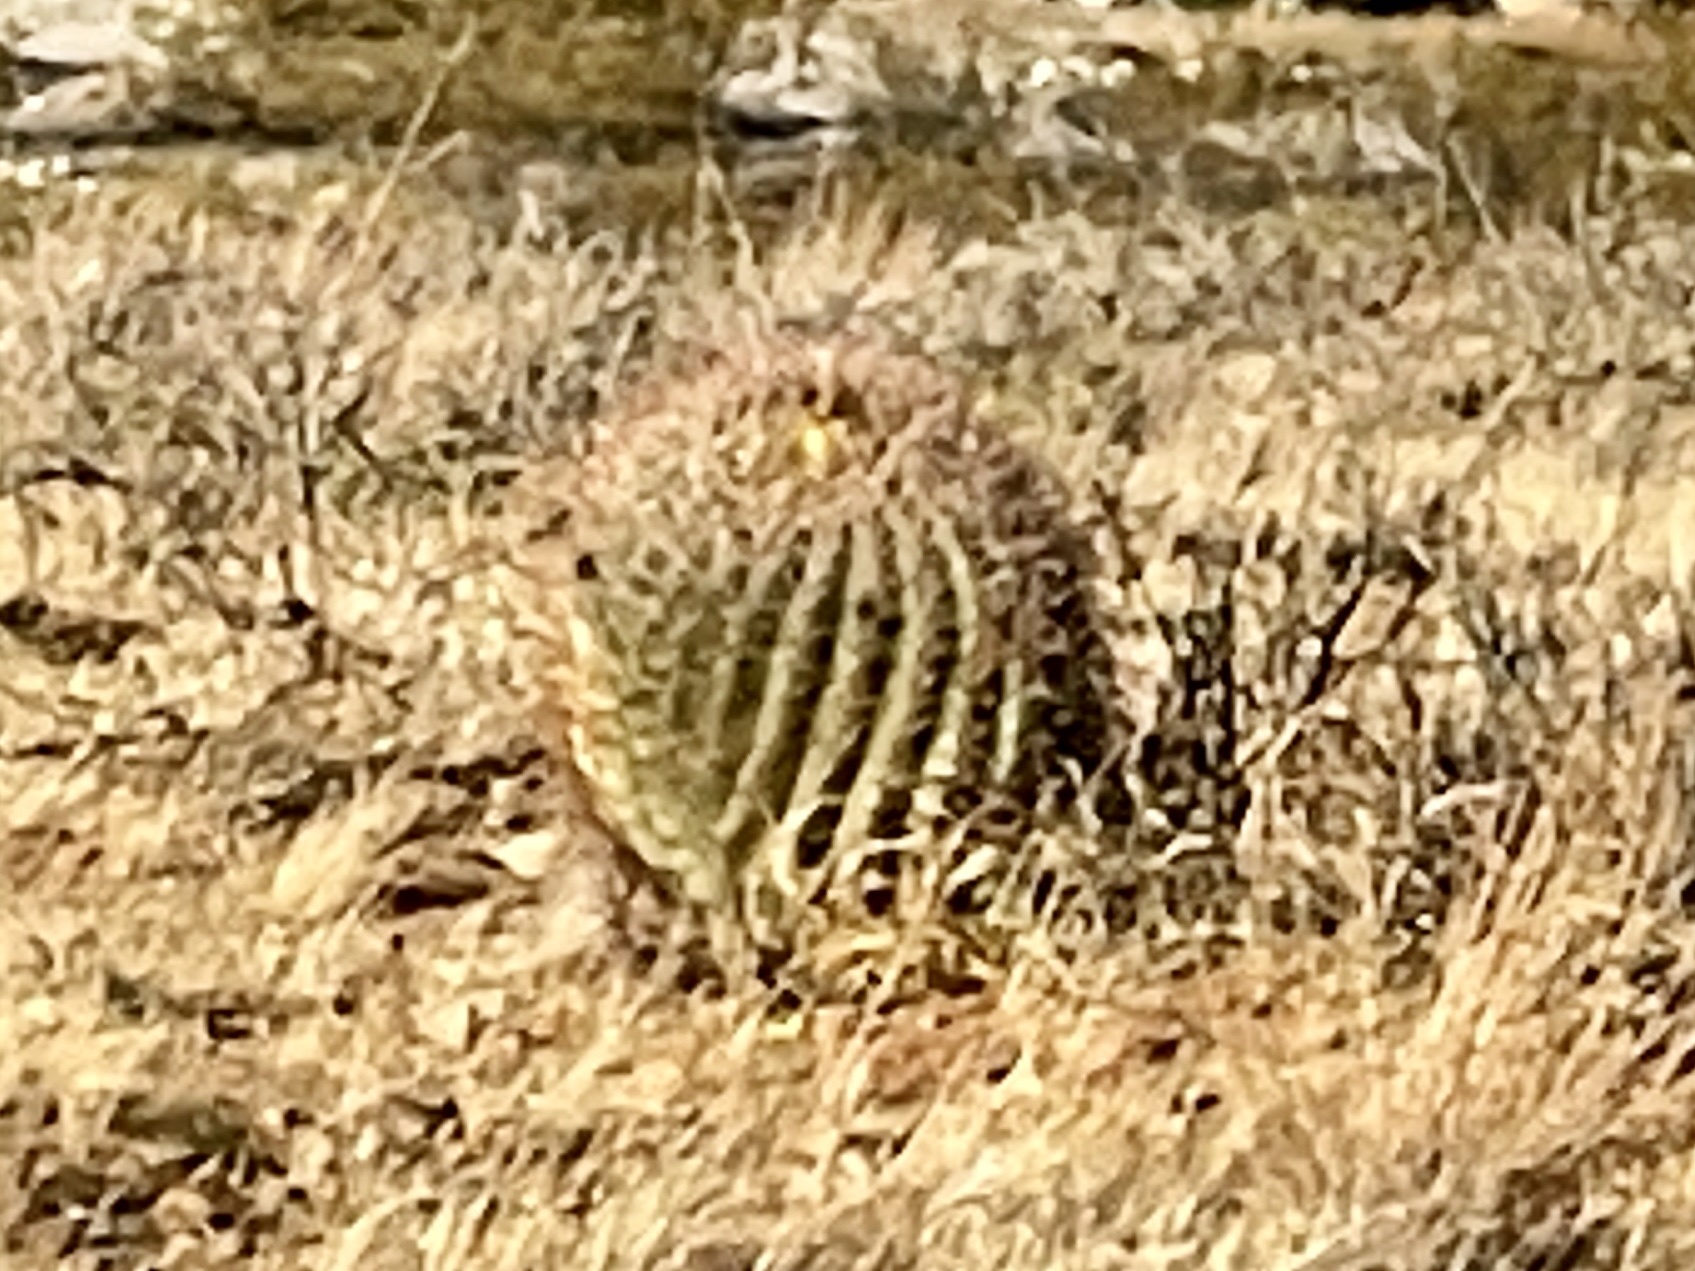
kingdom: Plantae
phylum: Tracheophyta
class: Magnoliopsida
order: Caryophyllales
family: Cactaceae
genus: Ferocactus
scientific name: Ferocactus wislizeni
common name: Candy barrel cactus
